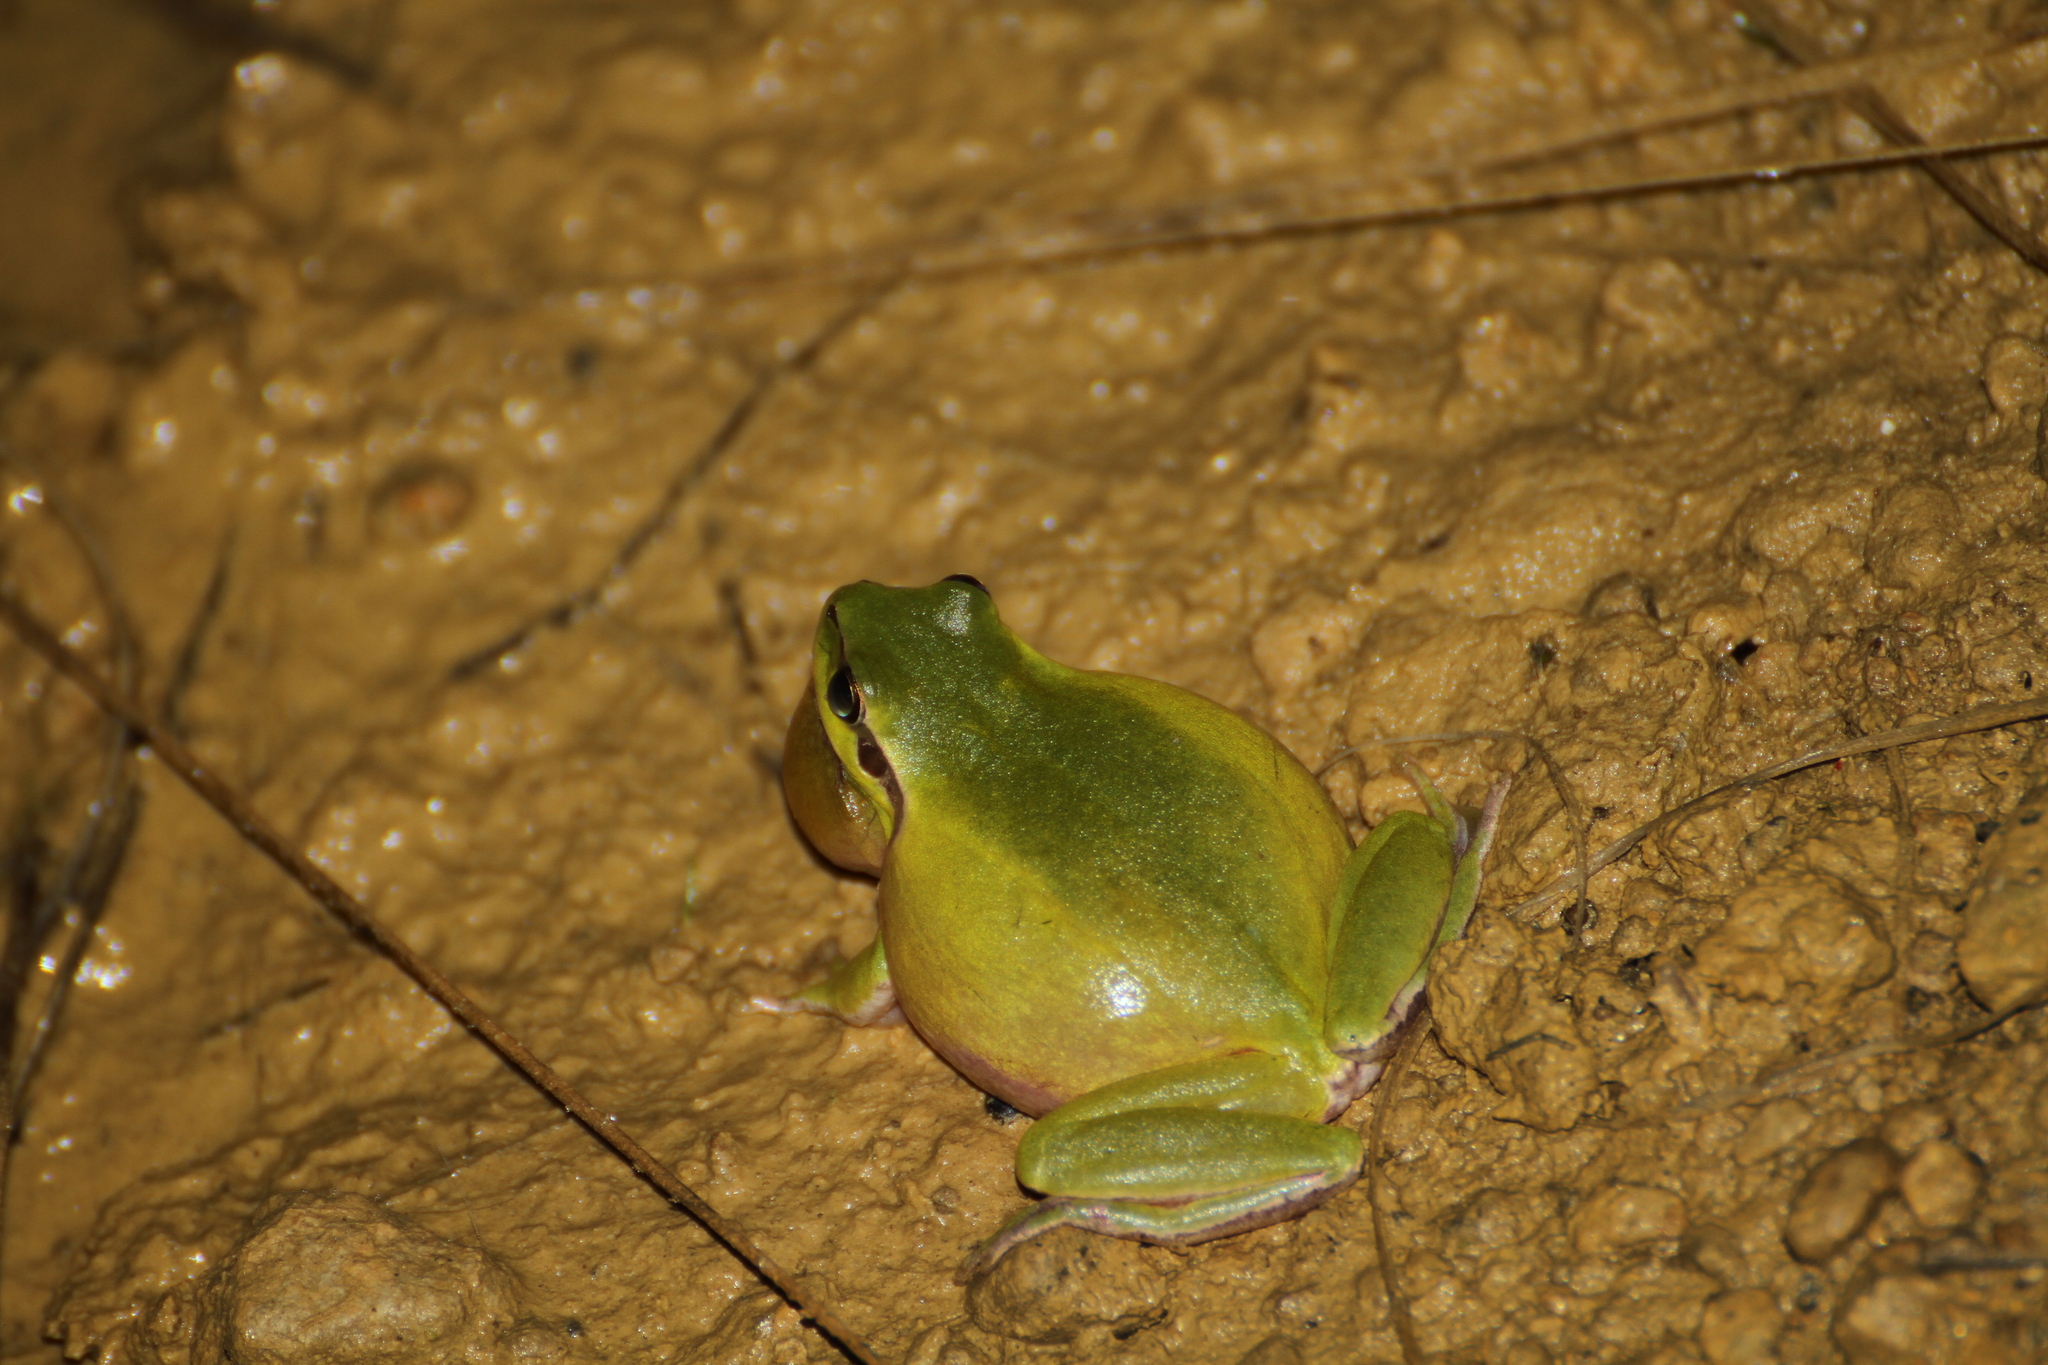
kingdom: Animalia
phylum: Chordata
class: Amphibia
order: Anura
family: Hylidae
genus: Hyla
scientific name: Hyla meridionalis
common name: Stripeless tree frog
